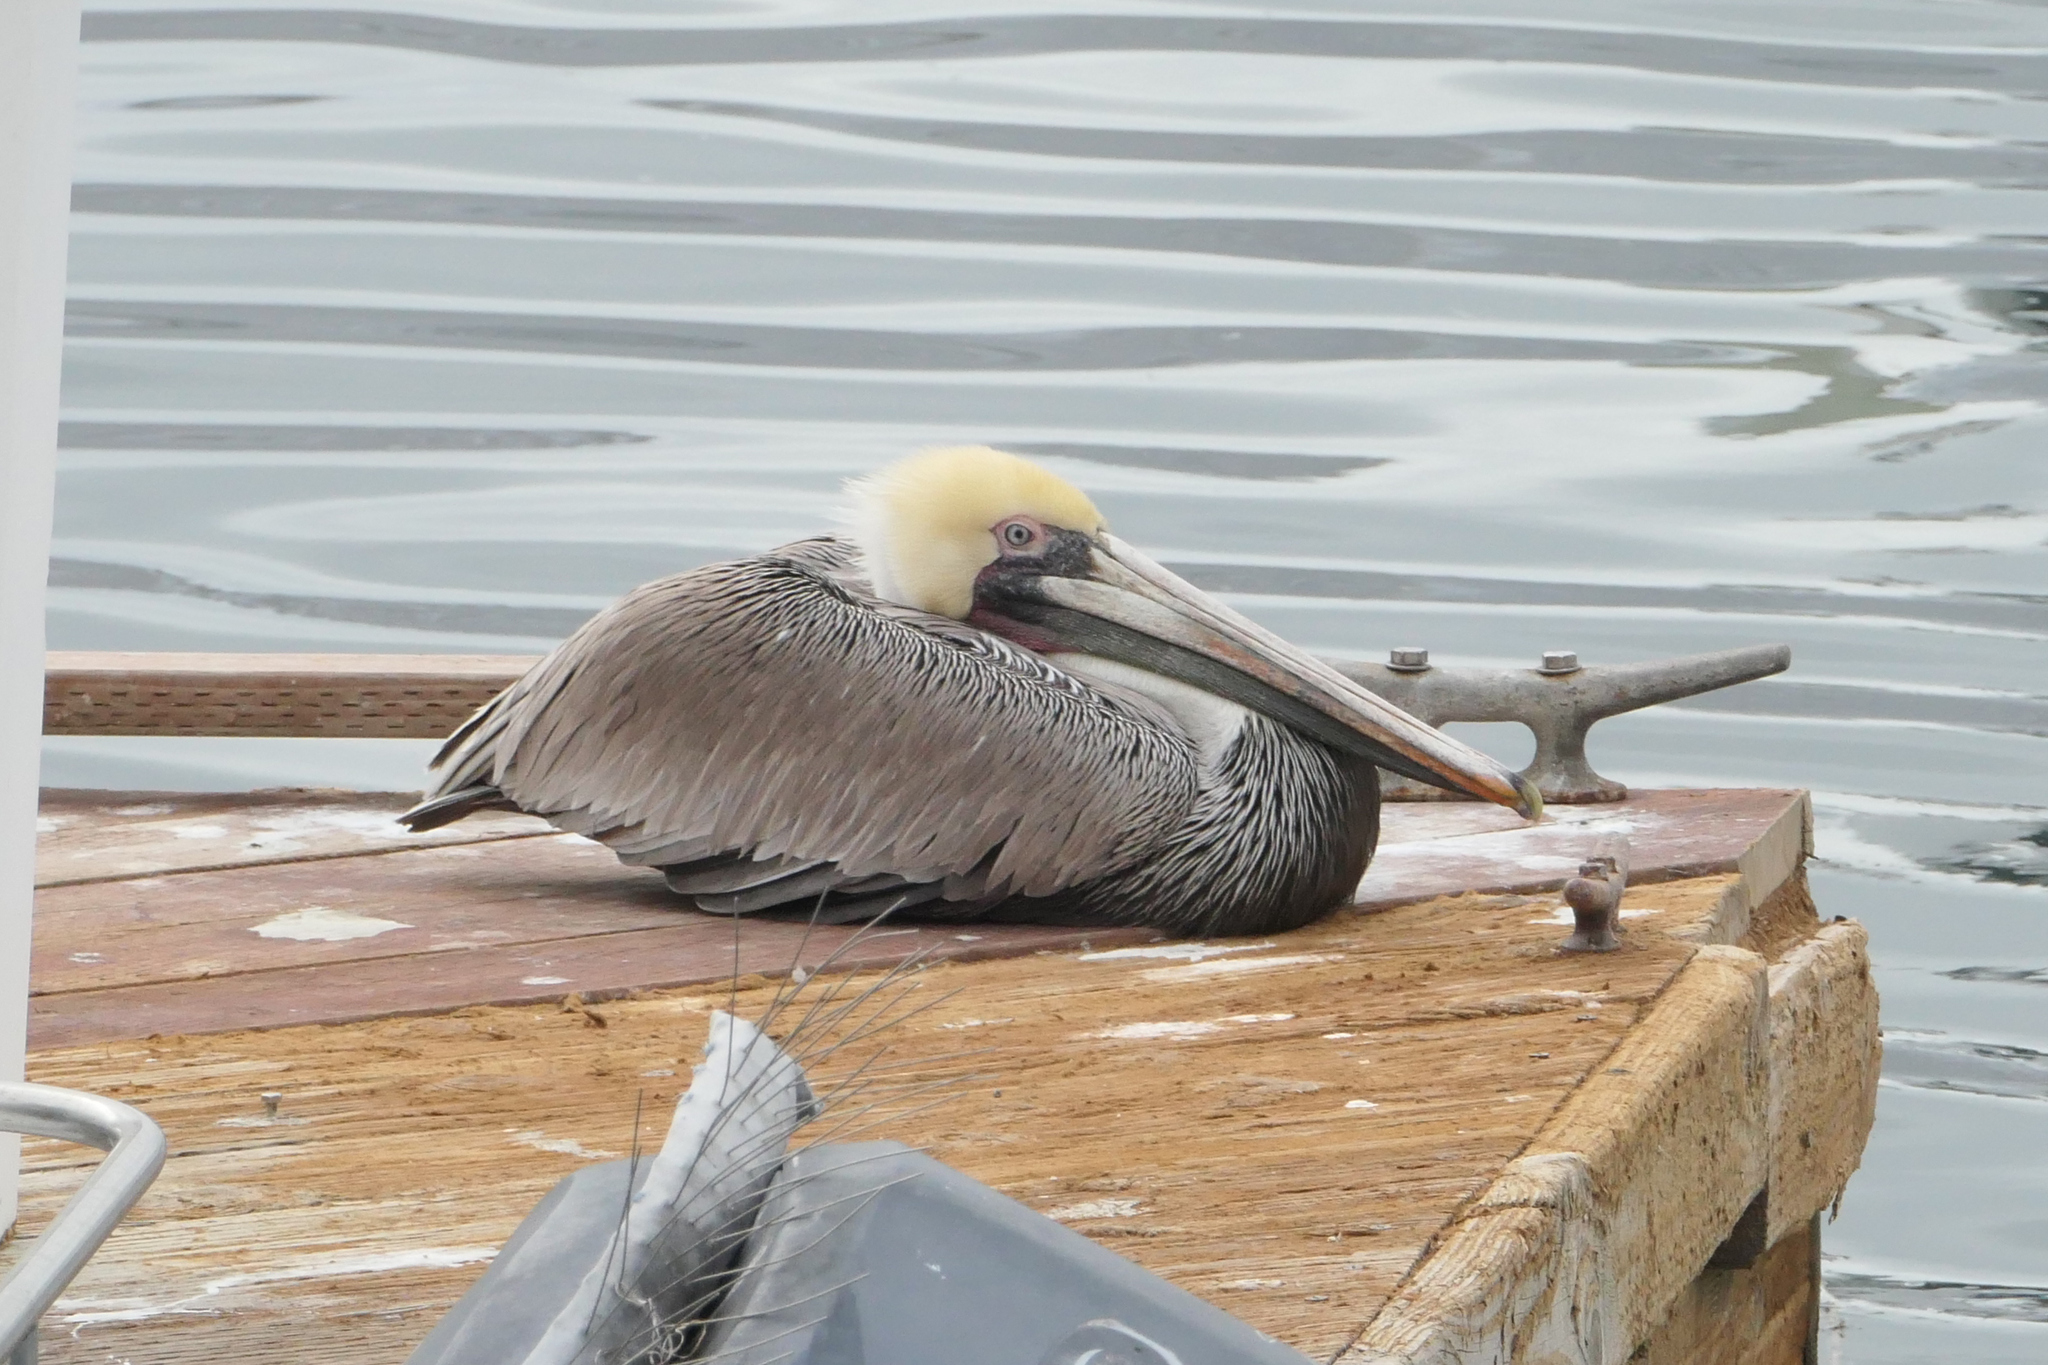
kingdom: Animalia
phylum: Chordata
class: Aves
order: Pelecaniformes
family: Pelecanidae
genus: Pelecanus
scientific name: Pelecanus occidentalis
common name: Brown pelican
